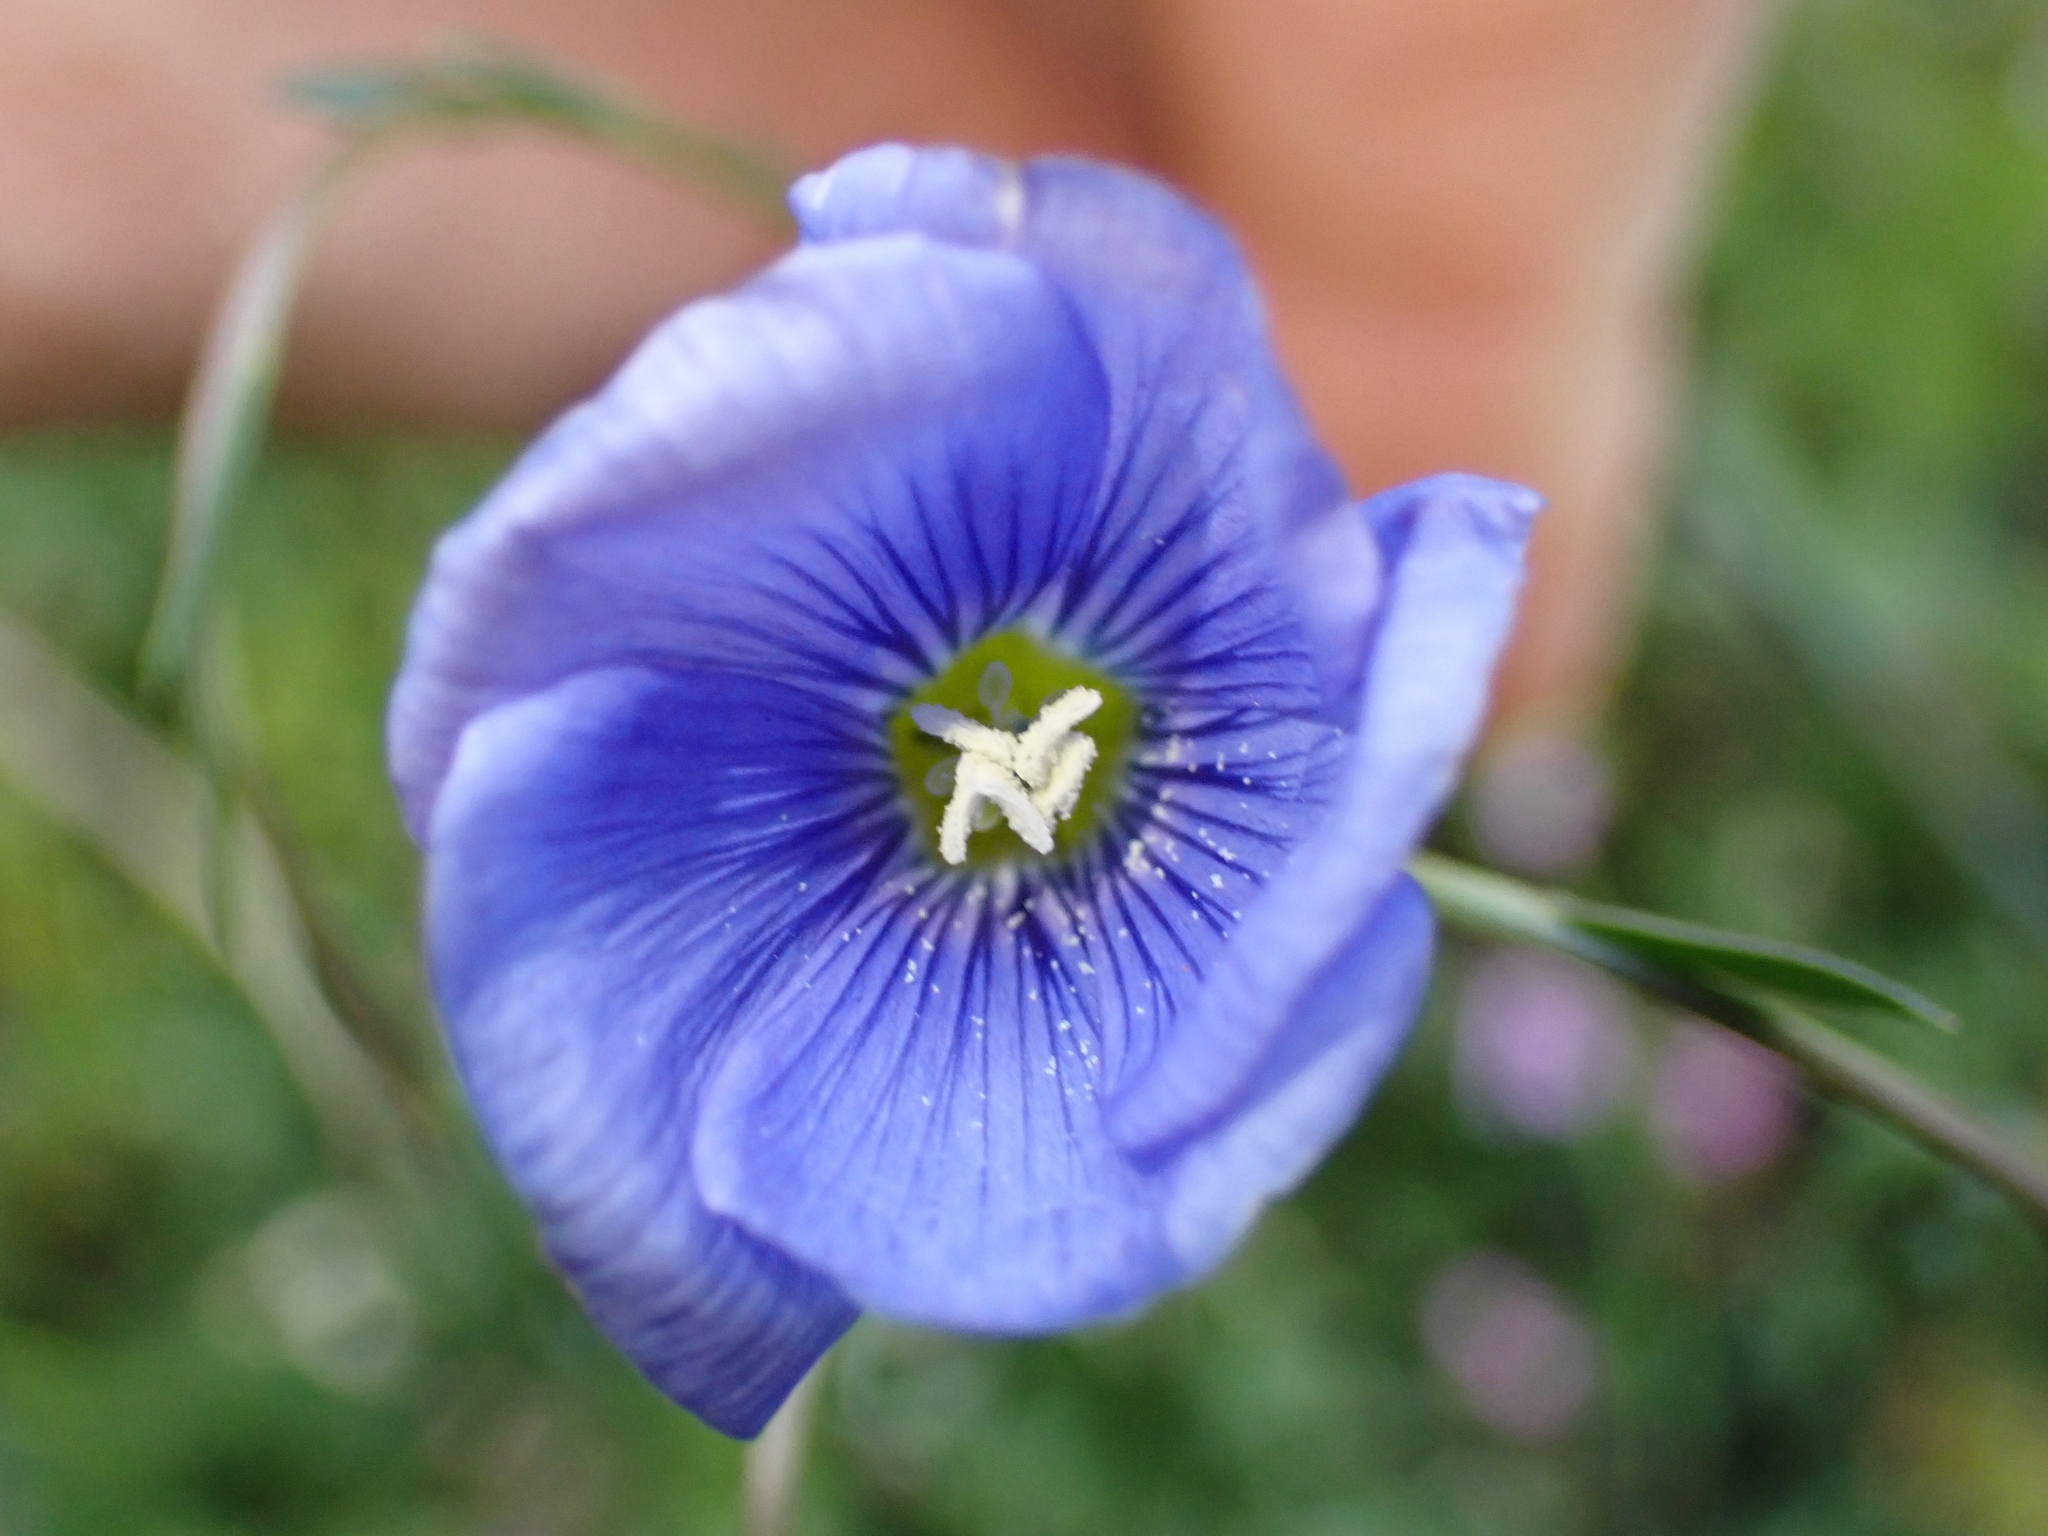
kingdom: Plantae
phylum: Tracheophyta
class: Magnoliopsida
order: Malpighiales
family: Linaceae
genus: Linum
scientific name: Linum austriacum
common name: Austrian flax
